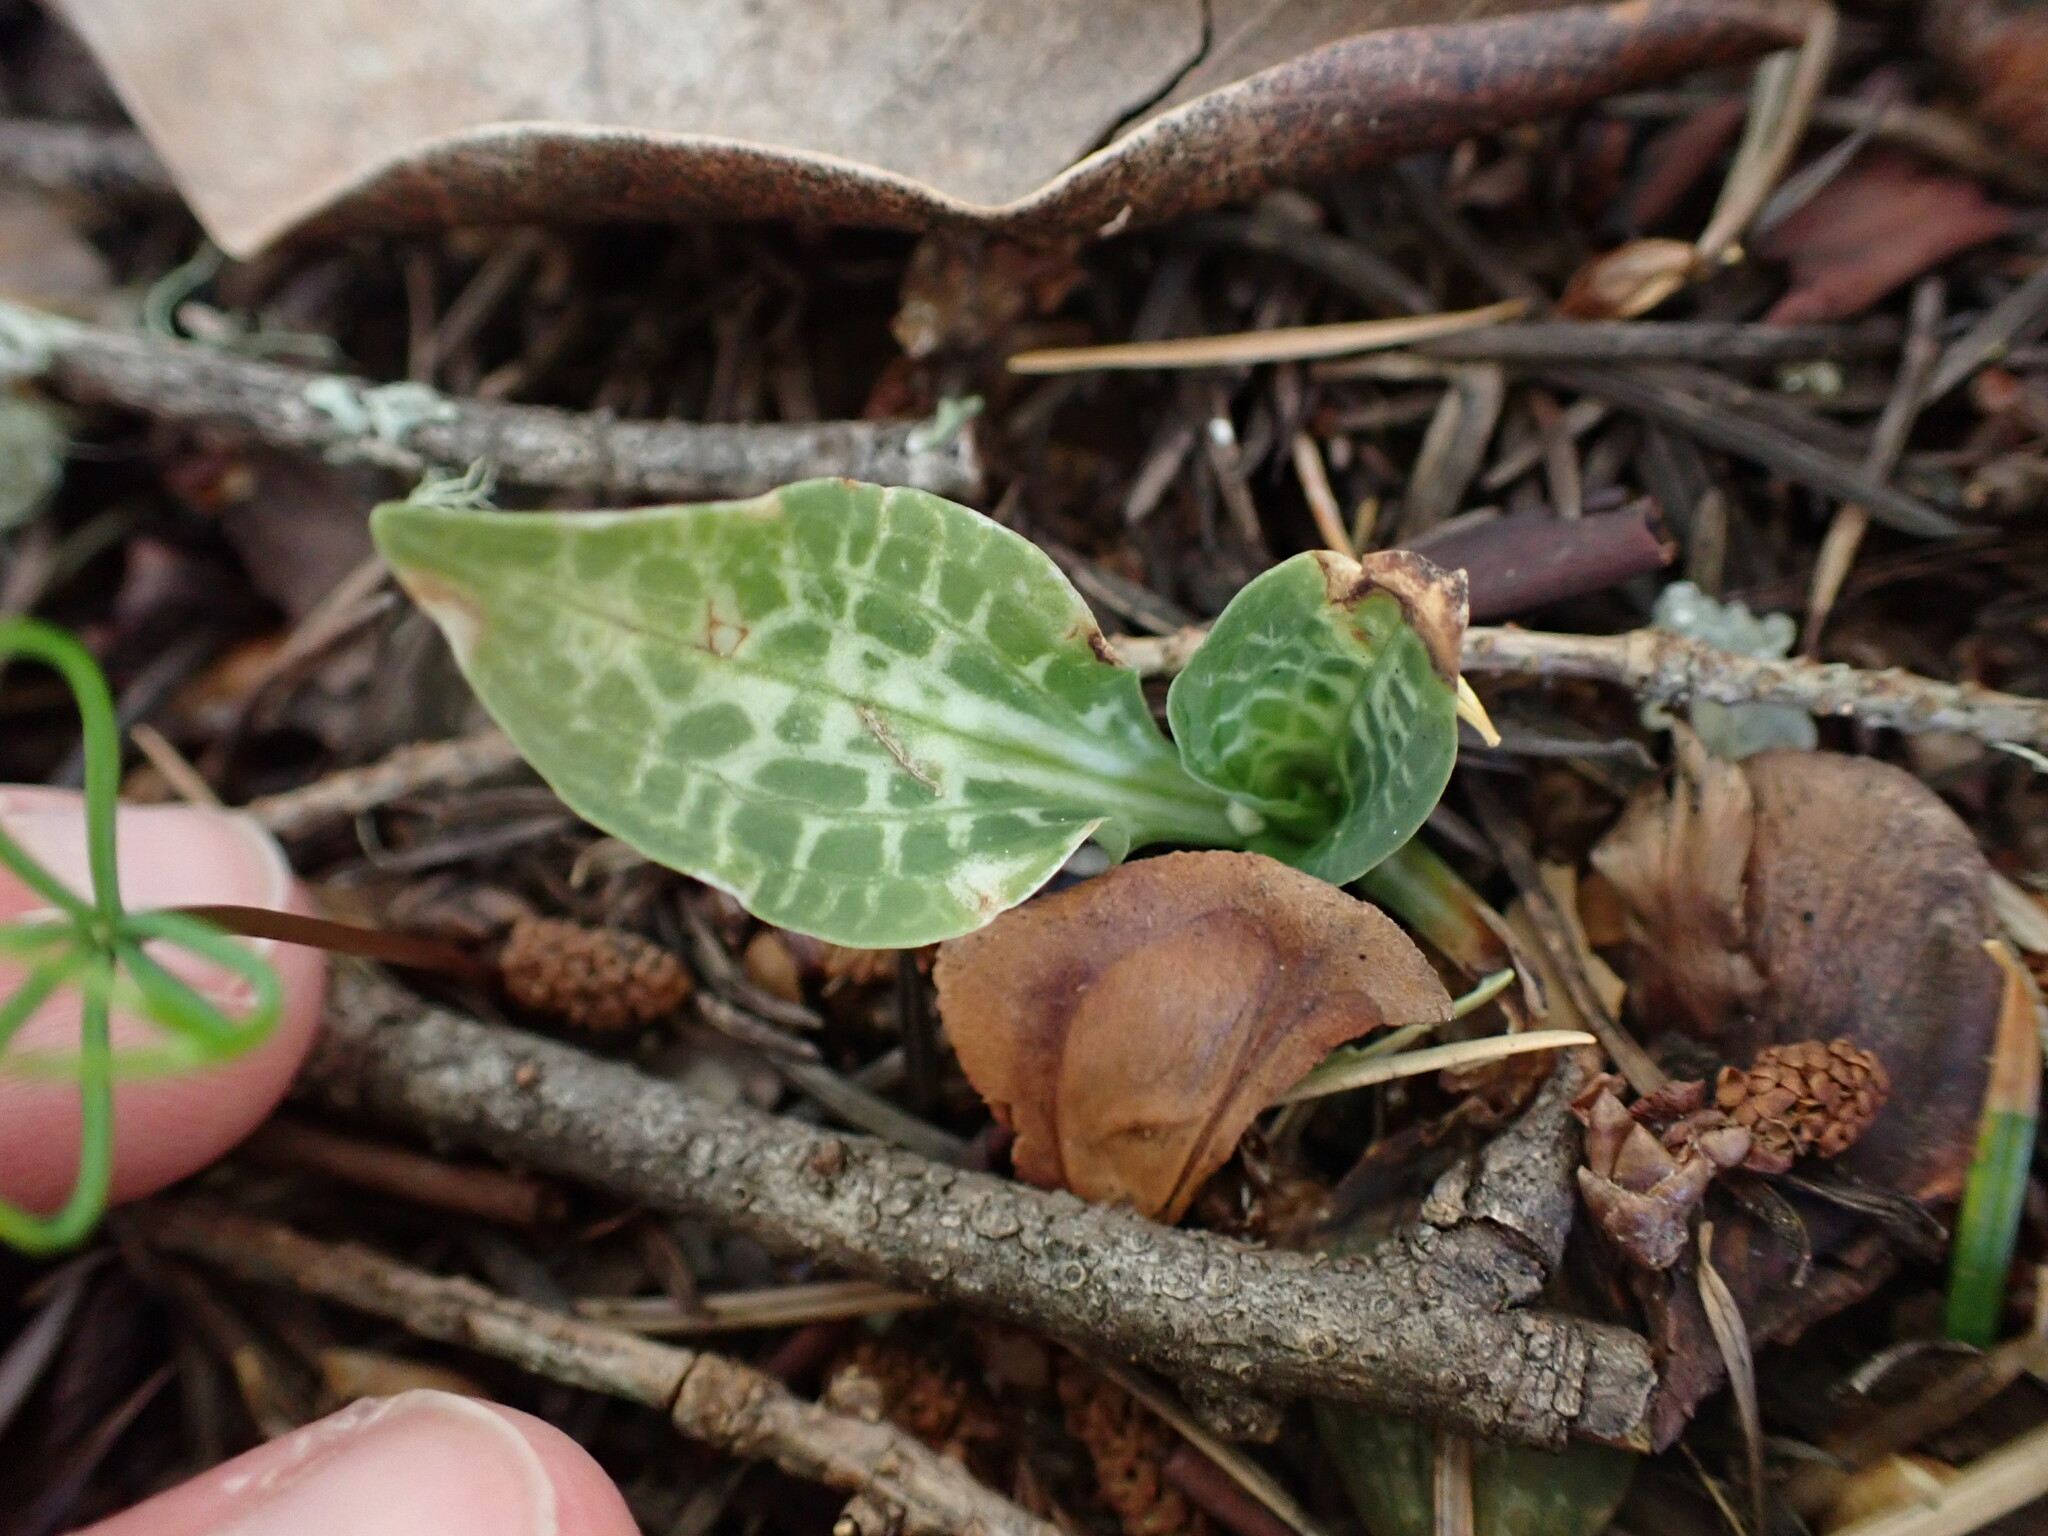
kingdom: Plantae
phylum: Tracheophyta
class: Liliopsida
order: Asparagales
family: Orchidaceae
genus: Goodyera
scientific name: Goodyera oblongifolia
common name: Giant rattlesnake-plantain
